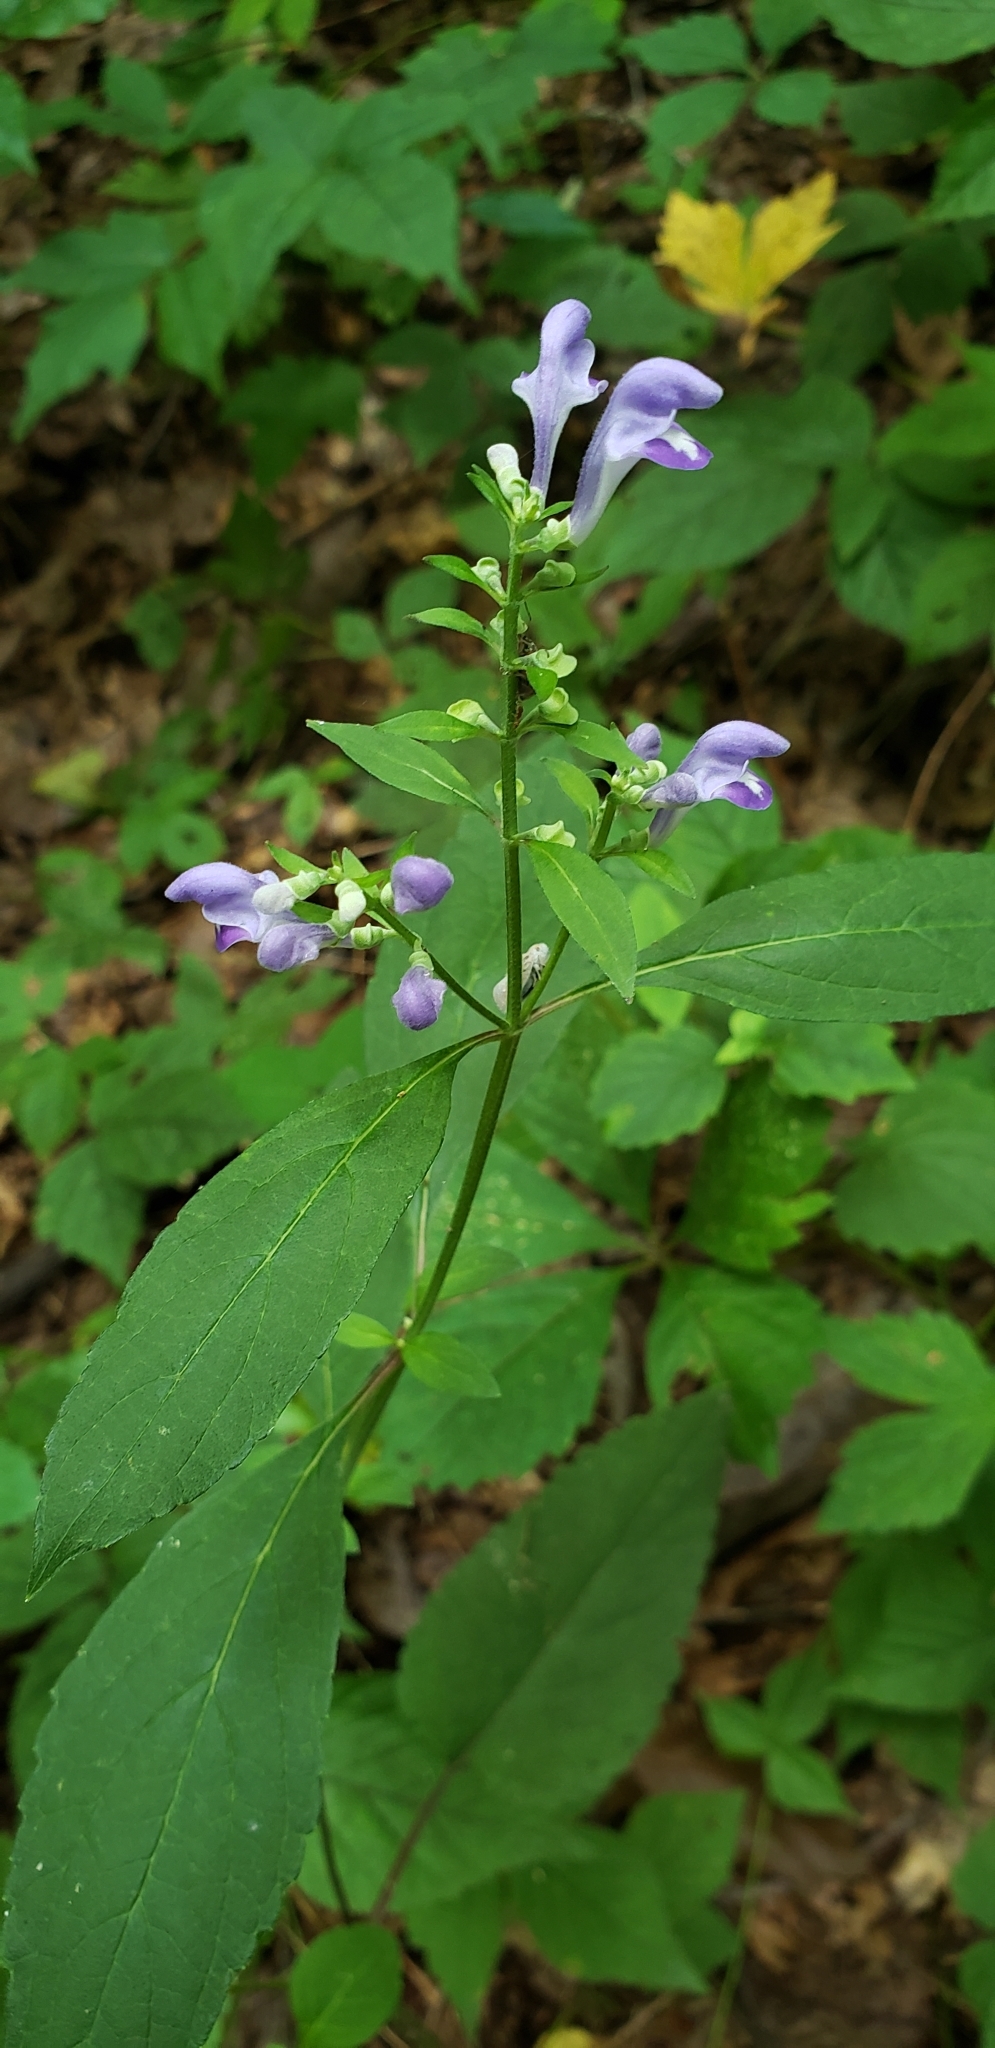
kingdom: Plantae
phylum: Tracheophyta
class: Magnoliopsida
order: Lamiales
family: Lamiaceae
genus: Scutellaria
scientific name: Scutellaria incana
